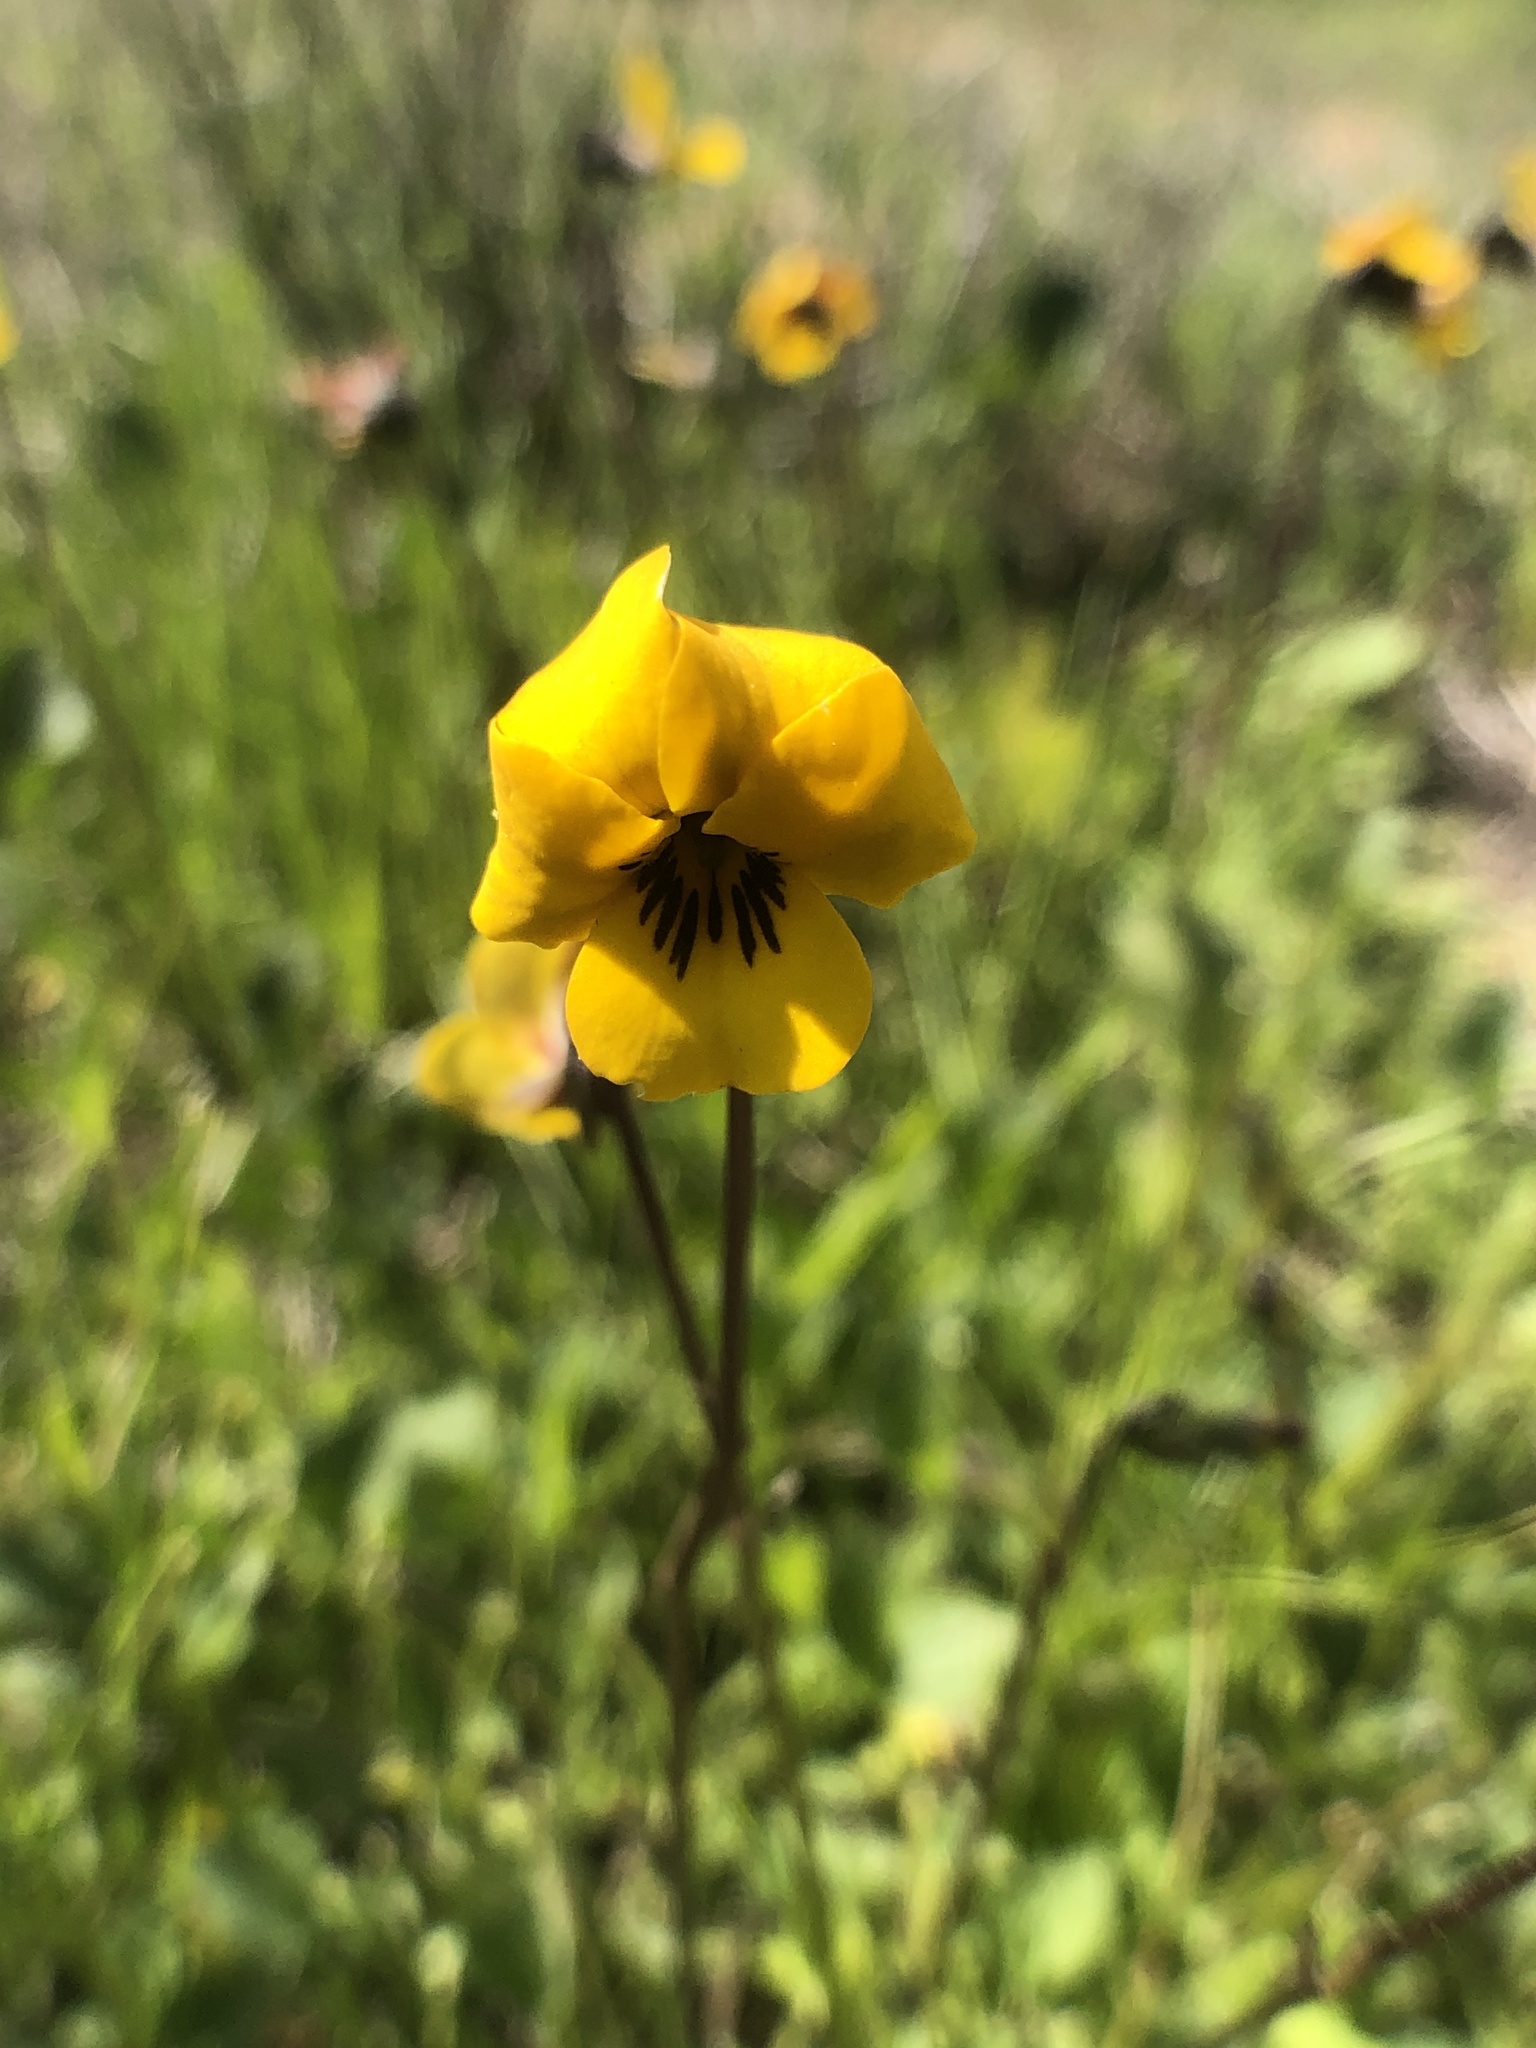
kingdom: Plantae
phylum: Tracheophyta
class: Magnoliopsida
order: Malpighiales
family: Violaceae
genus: Viola
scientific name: Viola pedunculata
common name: California golden violet
